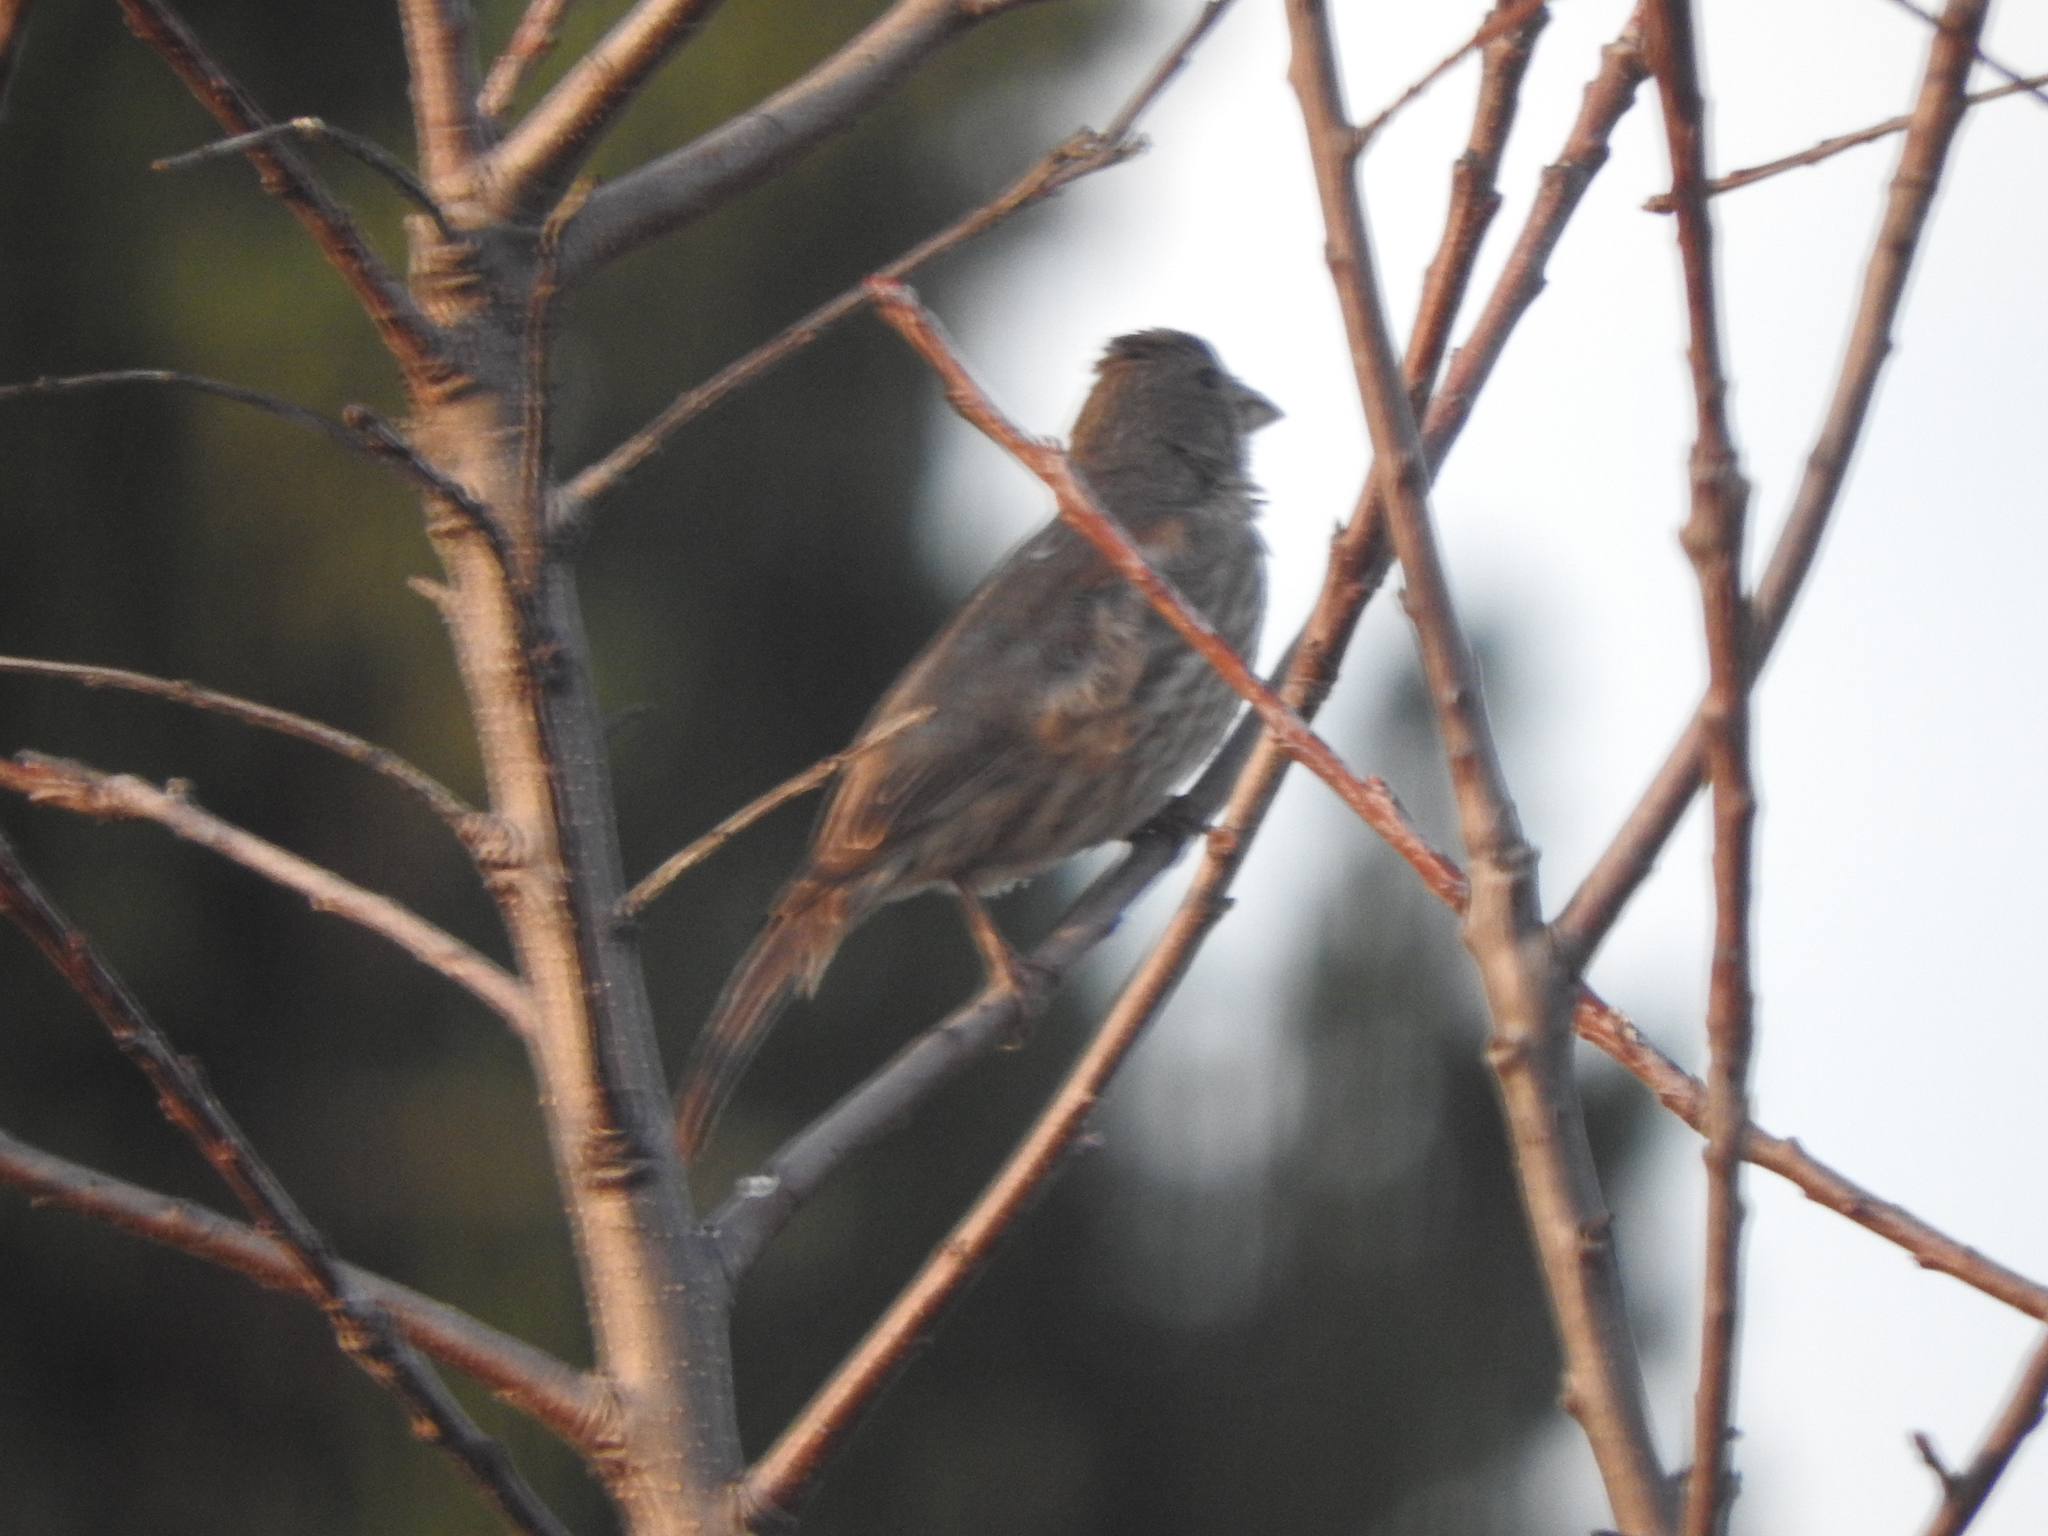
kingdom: Animalia
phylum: Chordata
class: Aves
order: Passeriformes
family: Fringillidae
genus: Haemorhous
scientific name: Haemorhous mexicanus
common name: House finch
